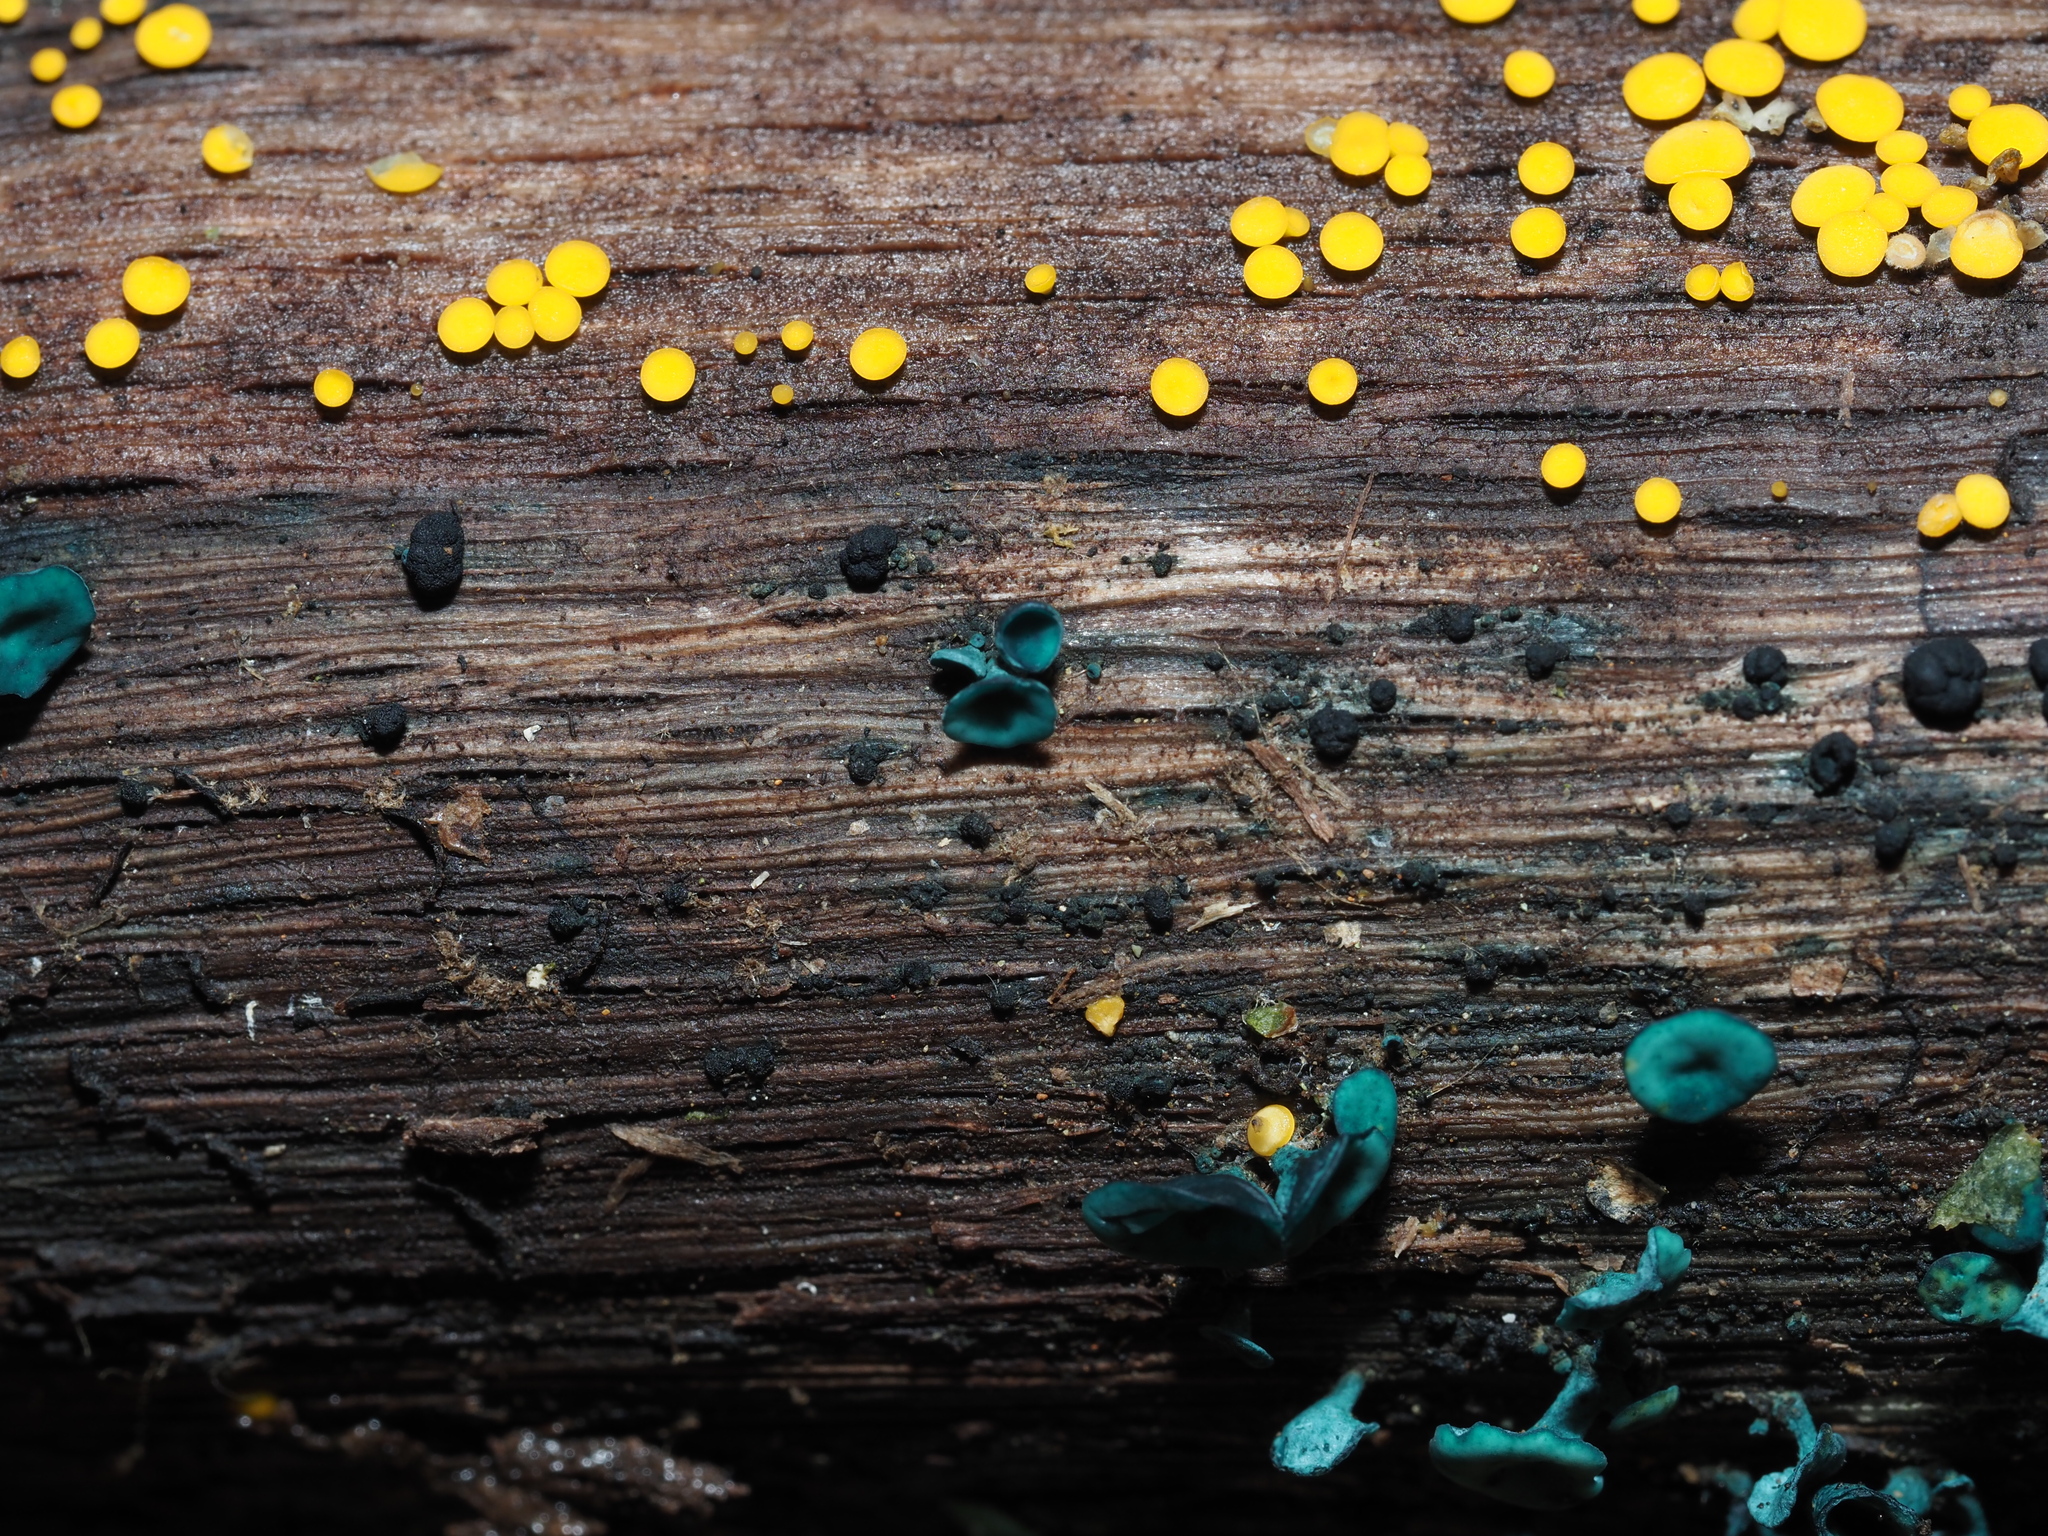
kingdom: Fungi
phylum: Ascomycota
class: Leotiomycetes
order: Helotiales
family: Chlorociboriaceae
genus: Chlorociboria
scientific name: Chlorociboria aeruginascens
